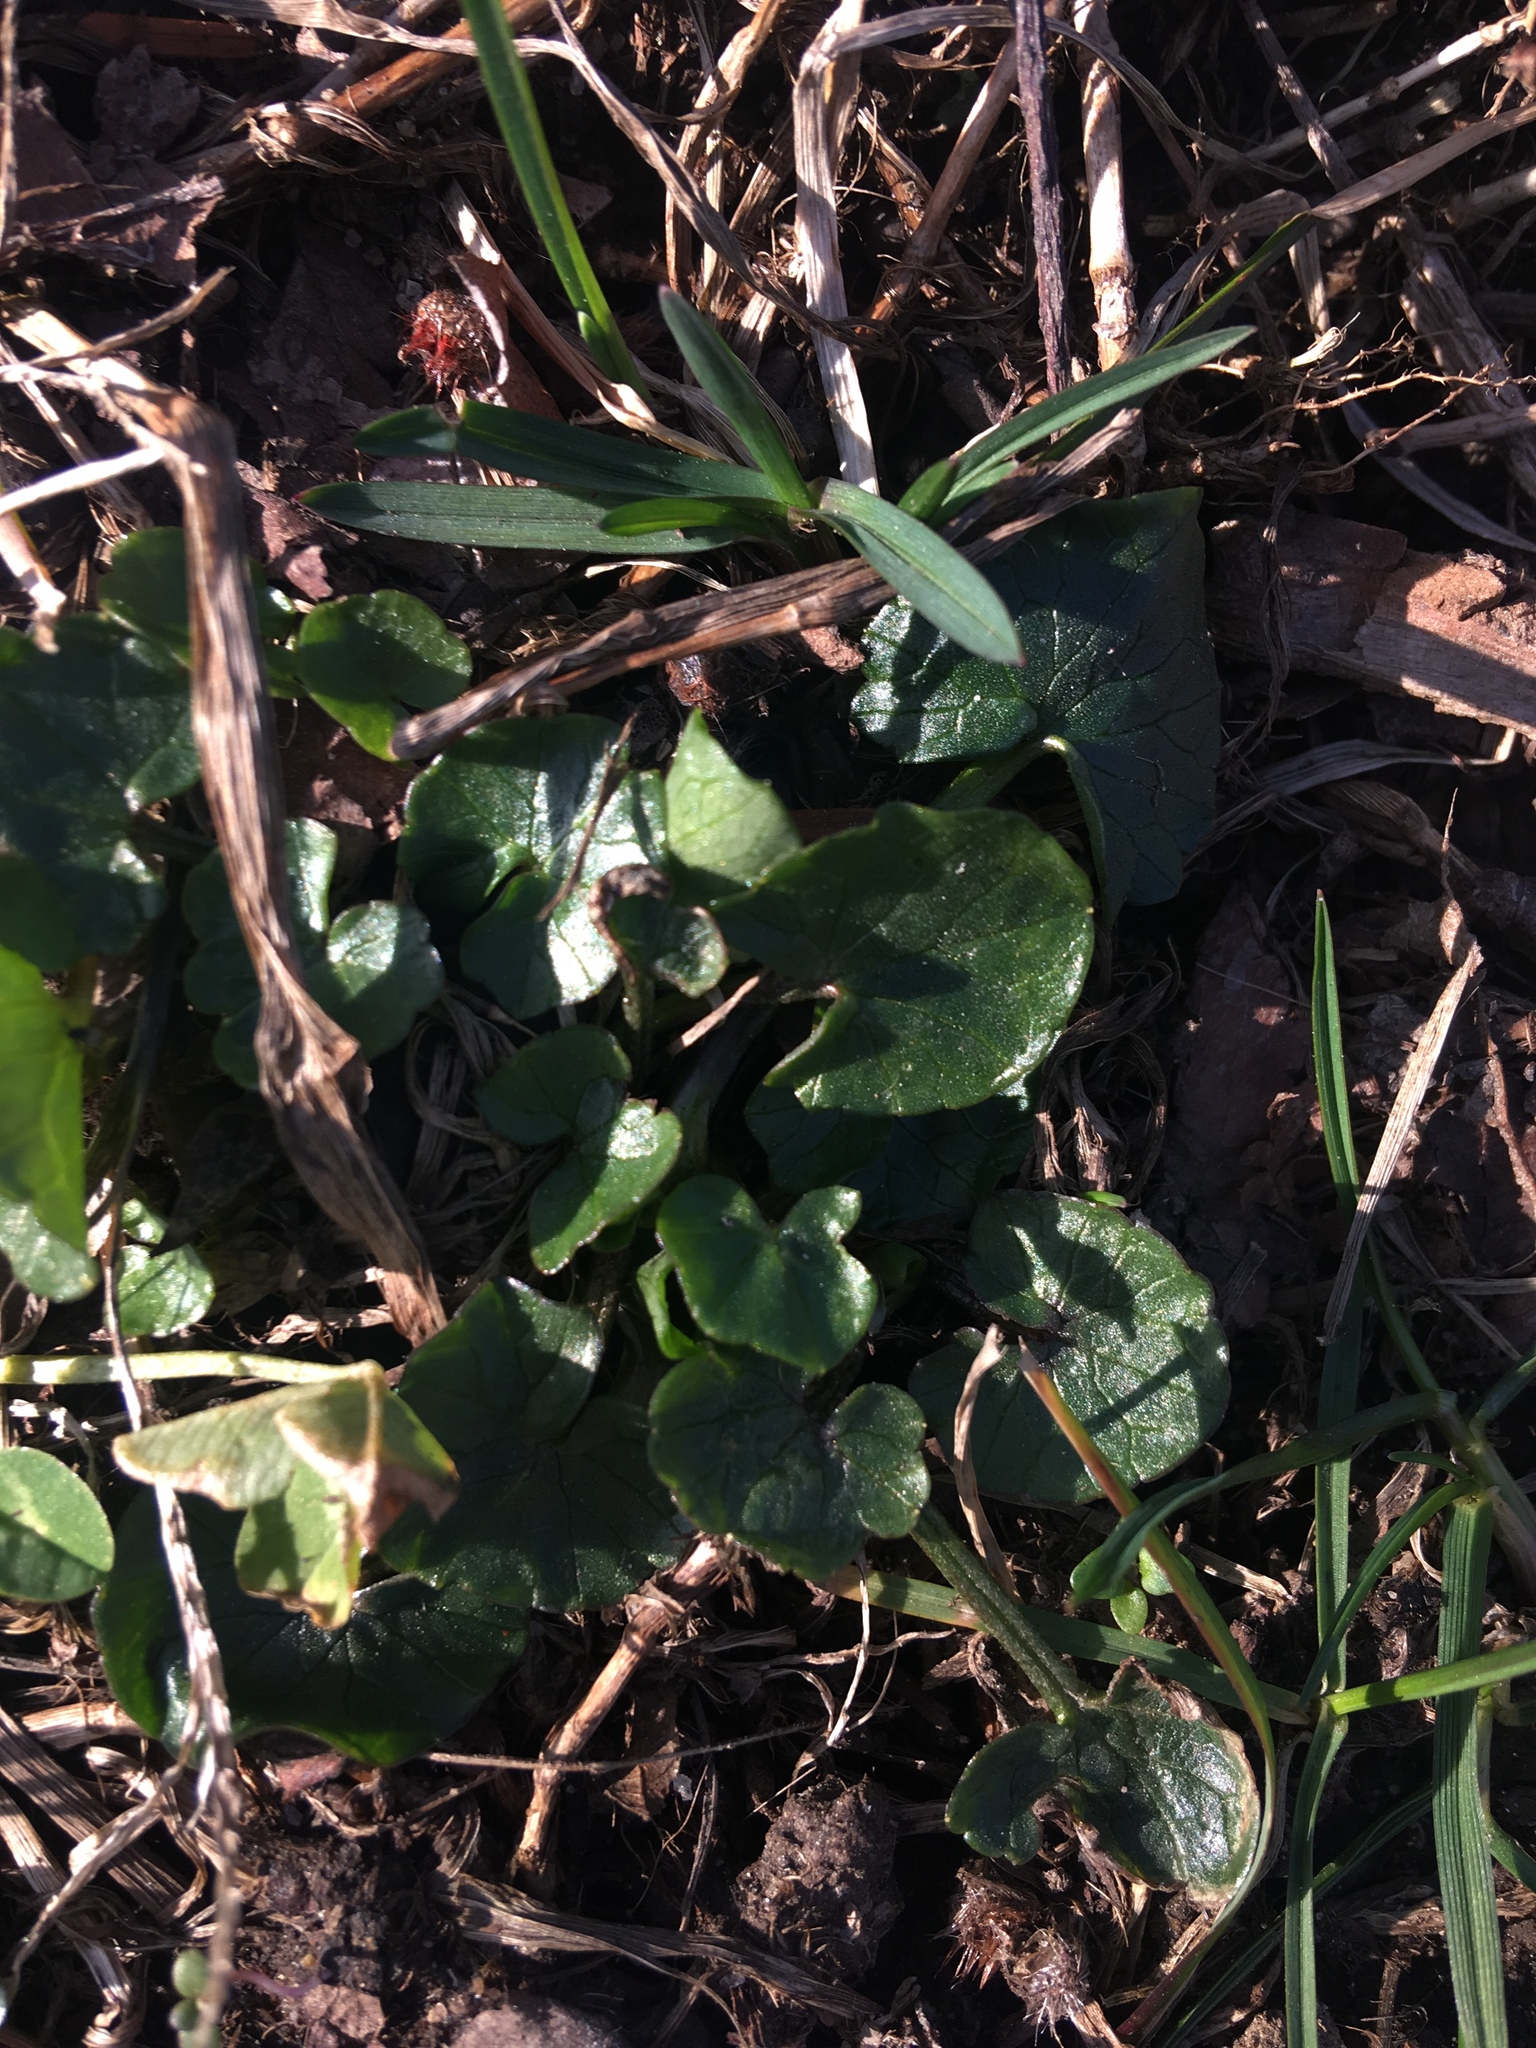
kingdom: Plantae
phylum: Tracheophyta
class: Magnoliopsida
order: Ranunculales
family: Ranunculaceae
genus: Ficaria
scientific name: Ficaria verna
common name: Lesser celandine
